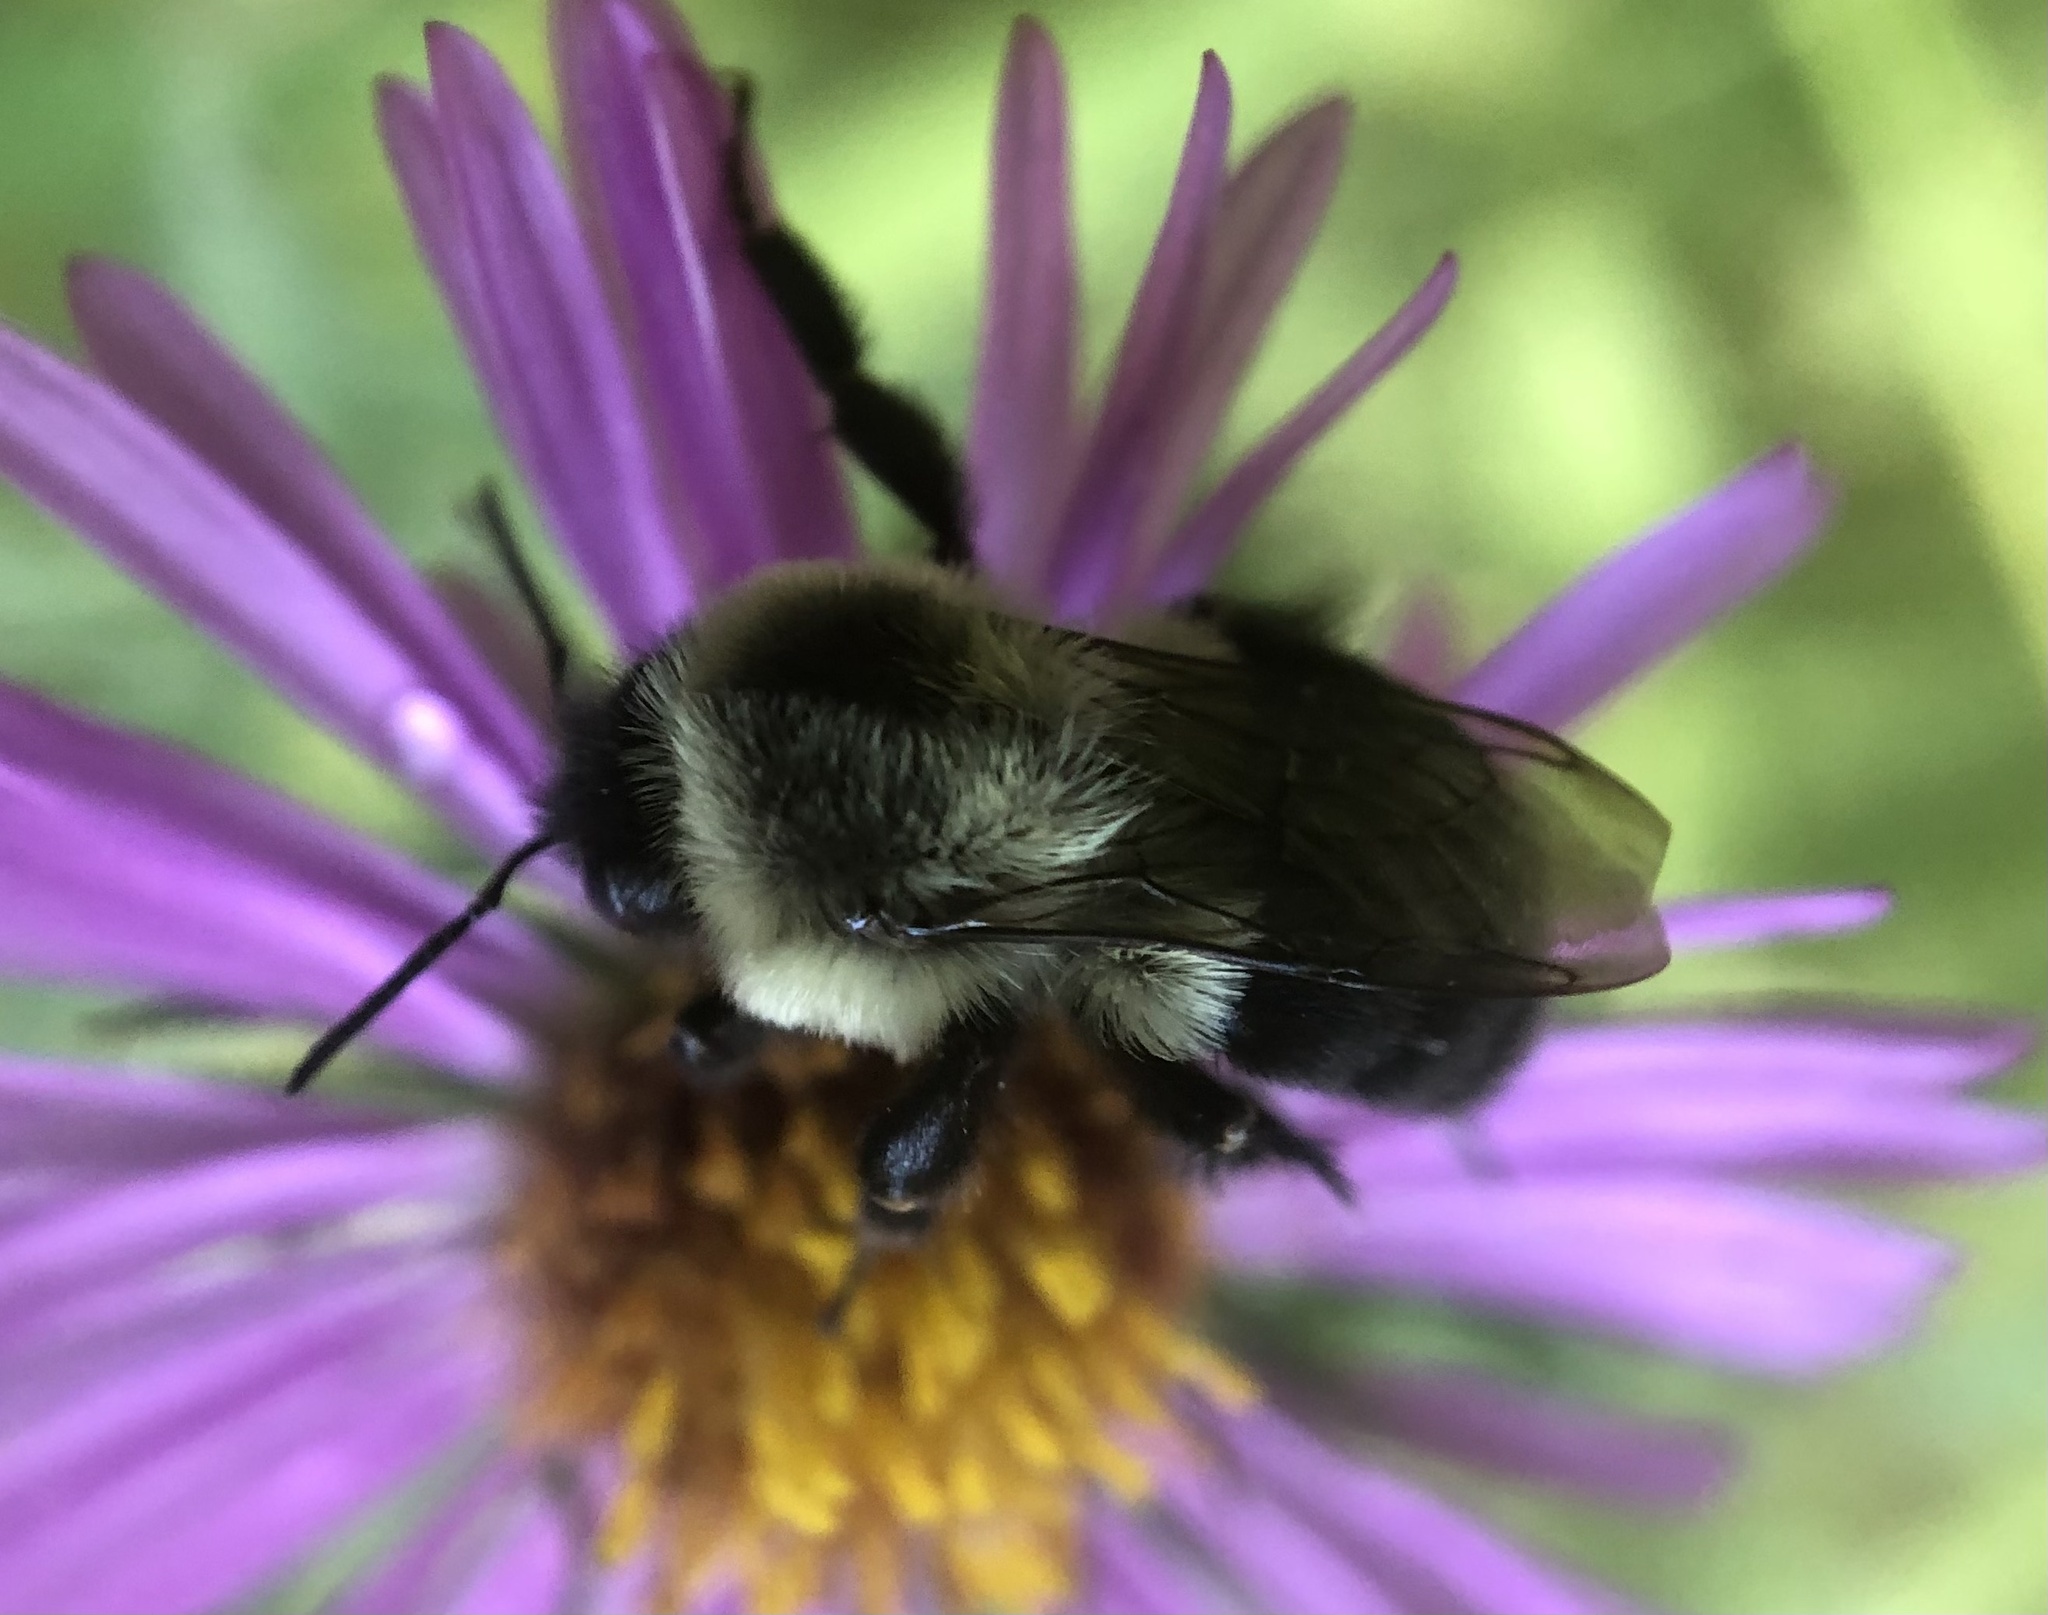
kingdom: Animalia
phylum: Arthropoda
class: Insecta
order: Hymenoptera
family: Apidae
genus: Bombus
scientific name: Bombus impatiens
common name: Common eastern bumble bee
